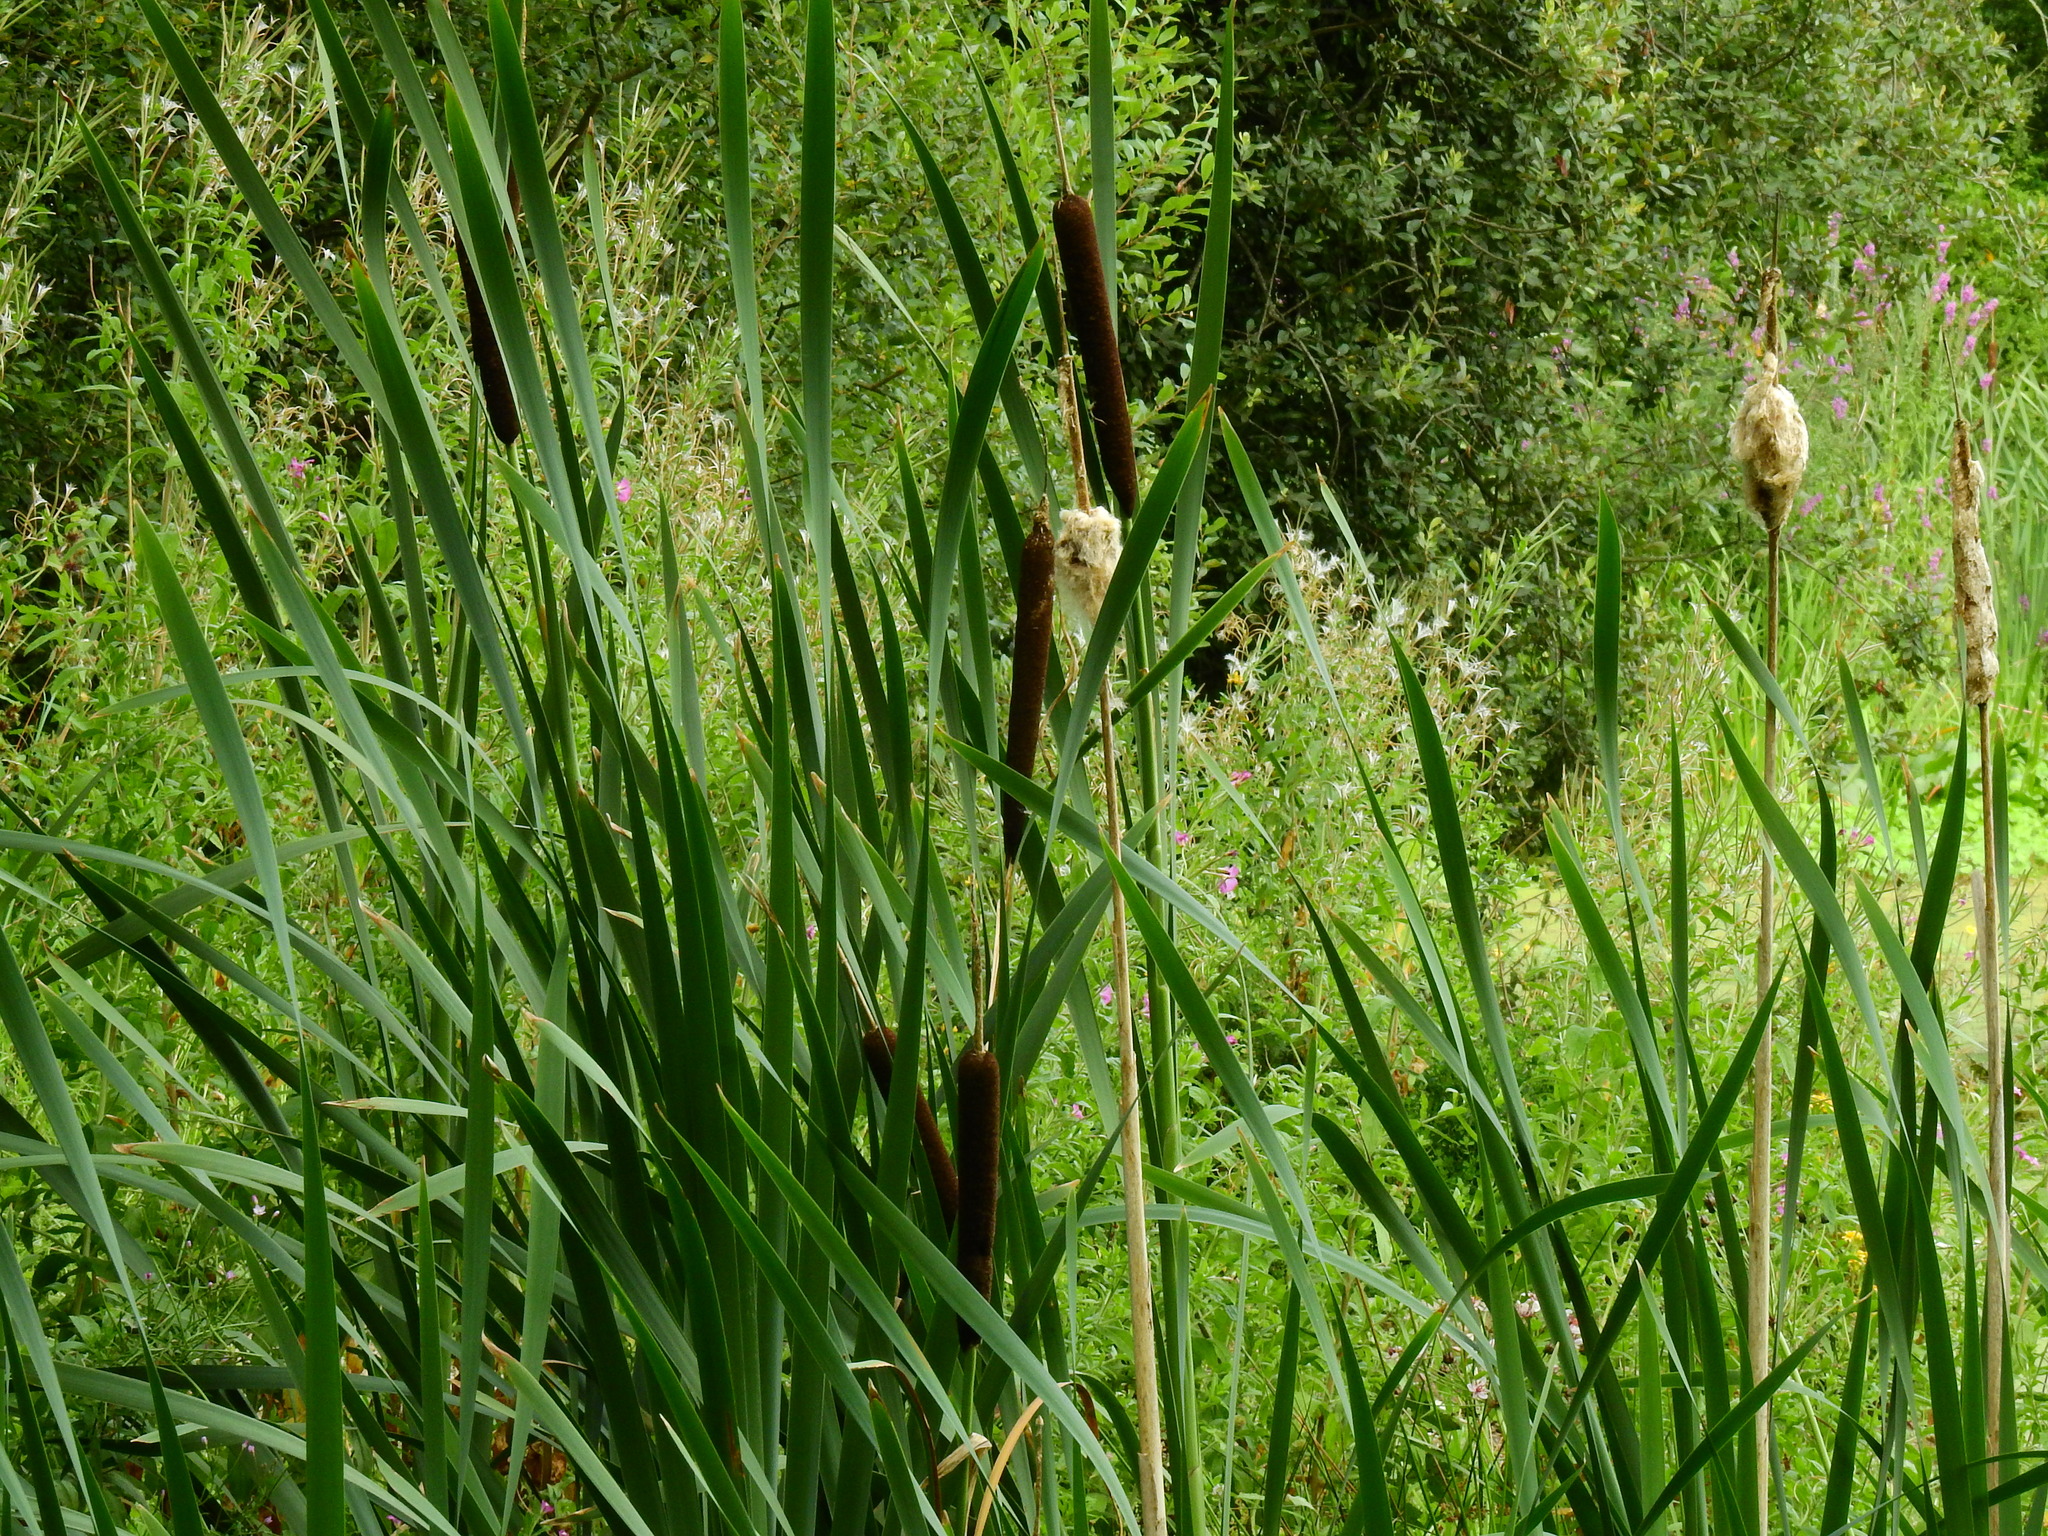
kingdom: Plantae
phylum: Tracheophyta
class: Liliopsida
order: Poales
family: Typhaceae
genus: Typha
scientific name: Typha latifolia
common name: Broadleaf cattail
